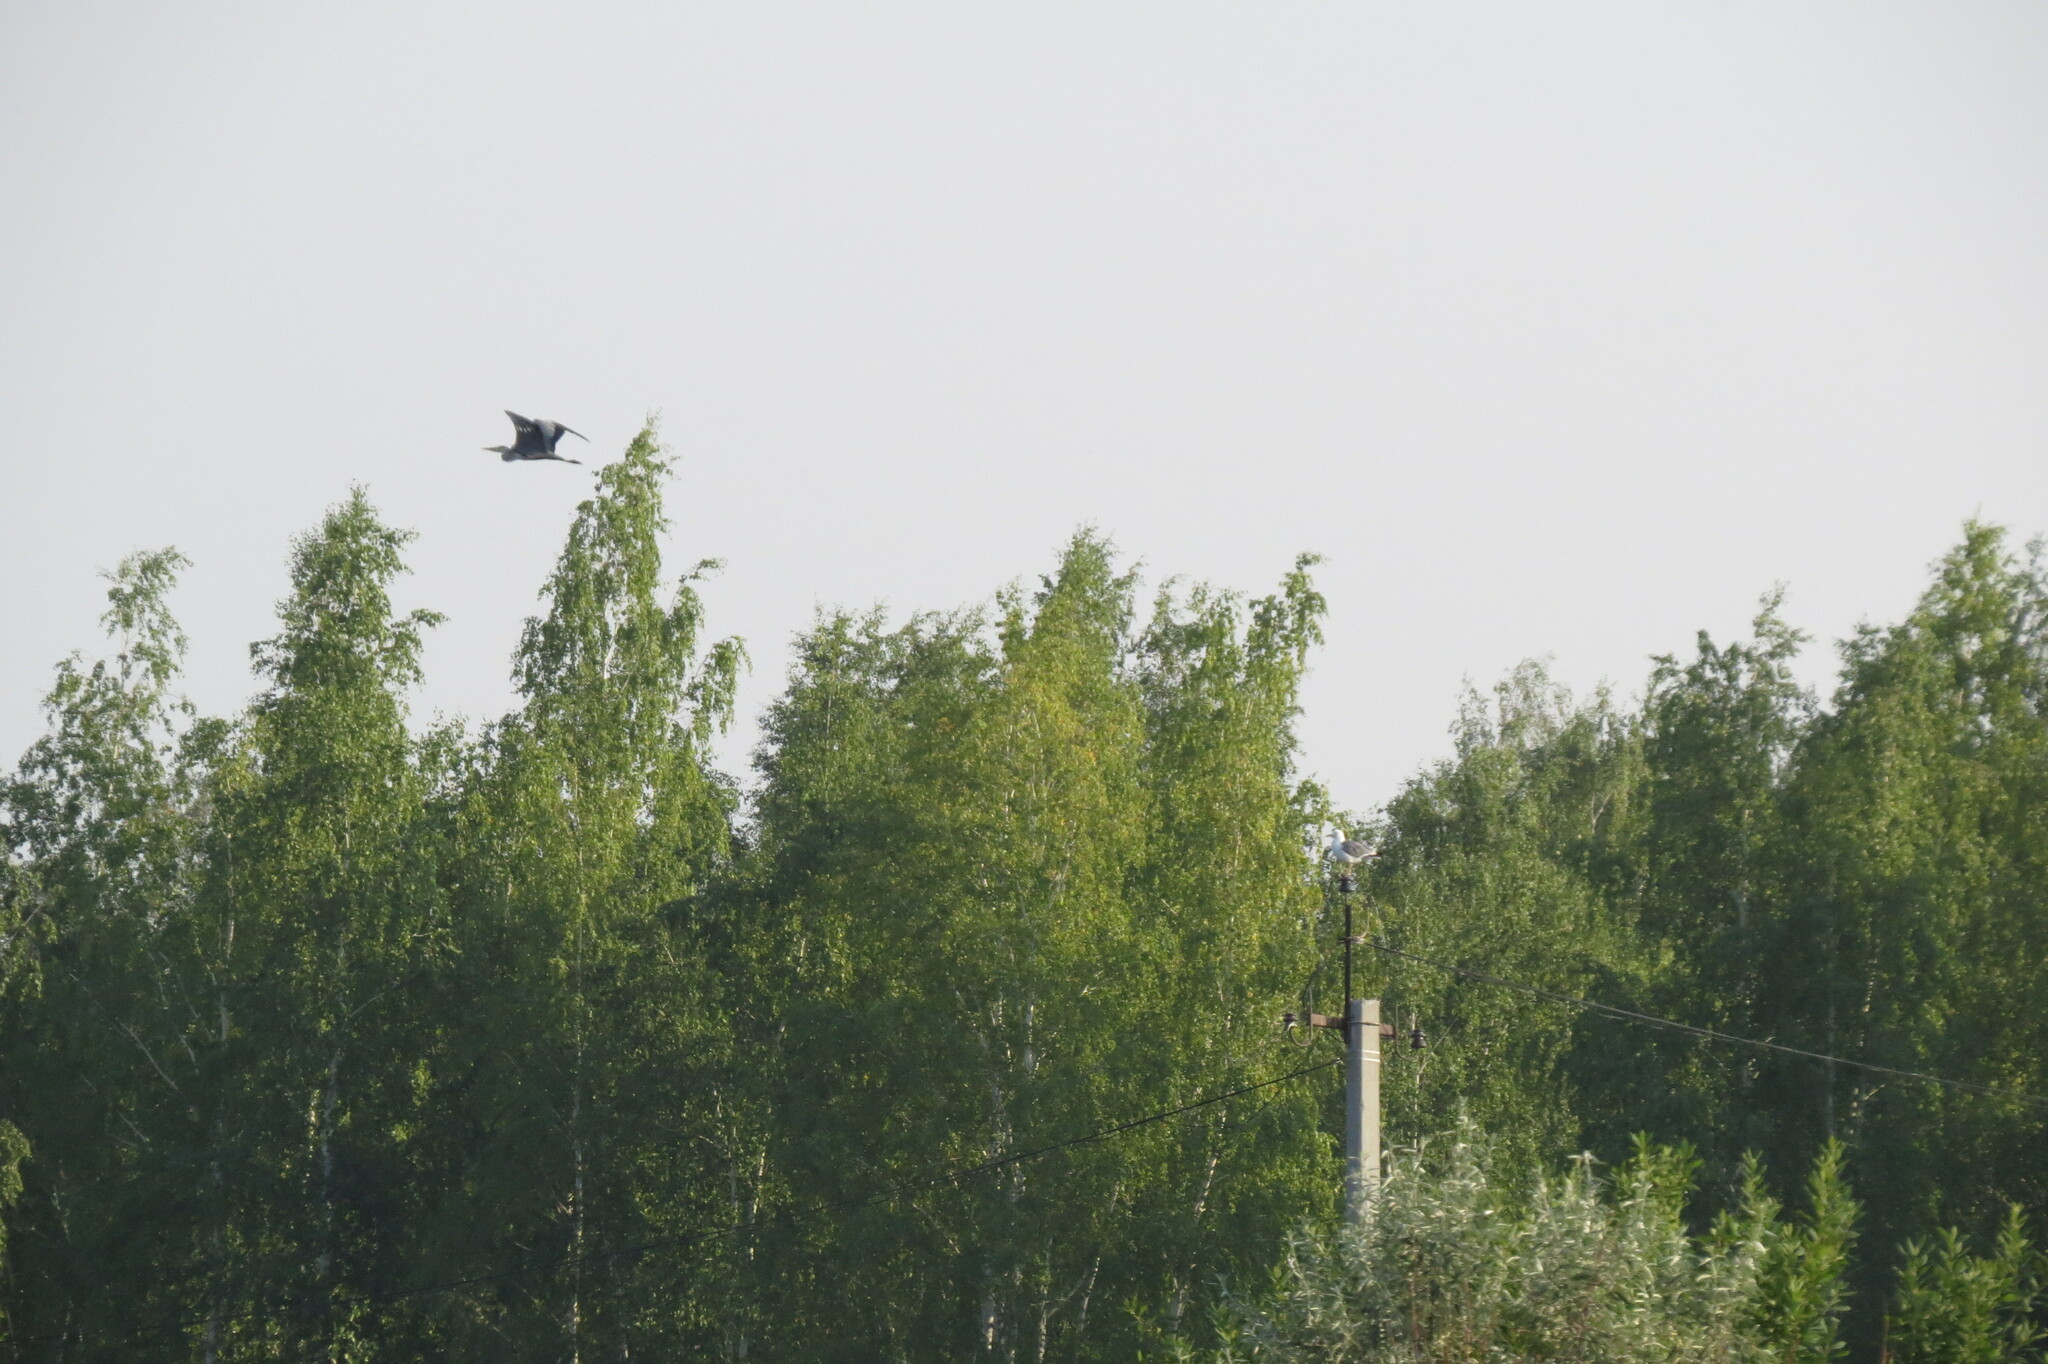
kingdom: Animalia
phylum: Chordata
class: Aves
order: Pelecaniformes
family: Ardeidae
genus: Ardea
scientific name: Ardea cinerea
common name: Grey heron
